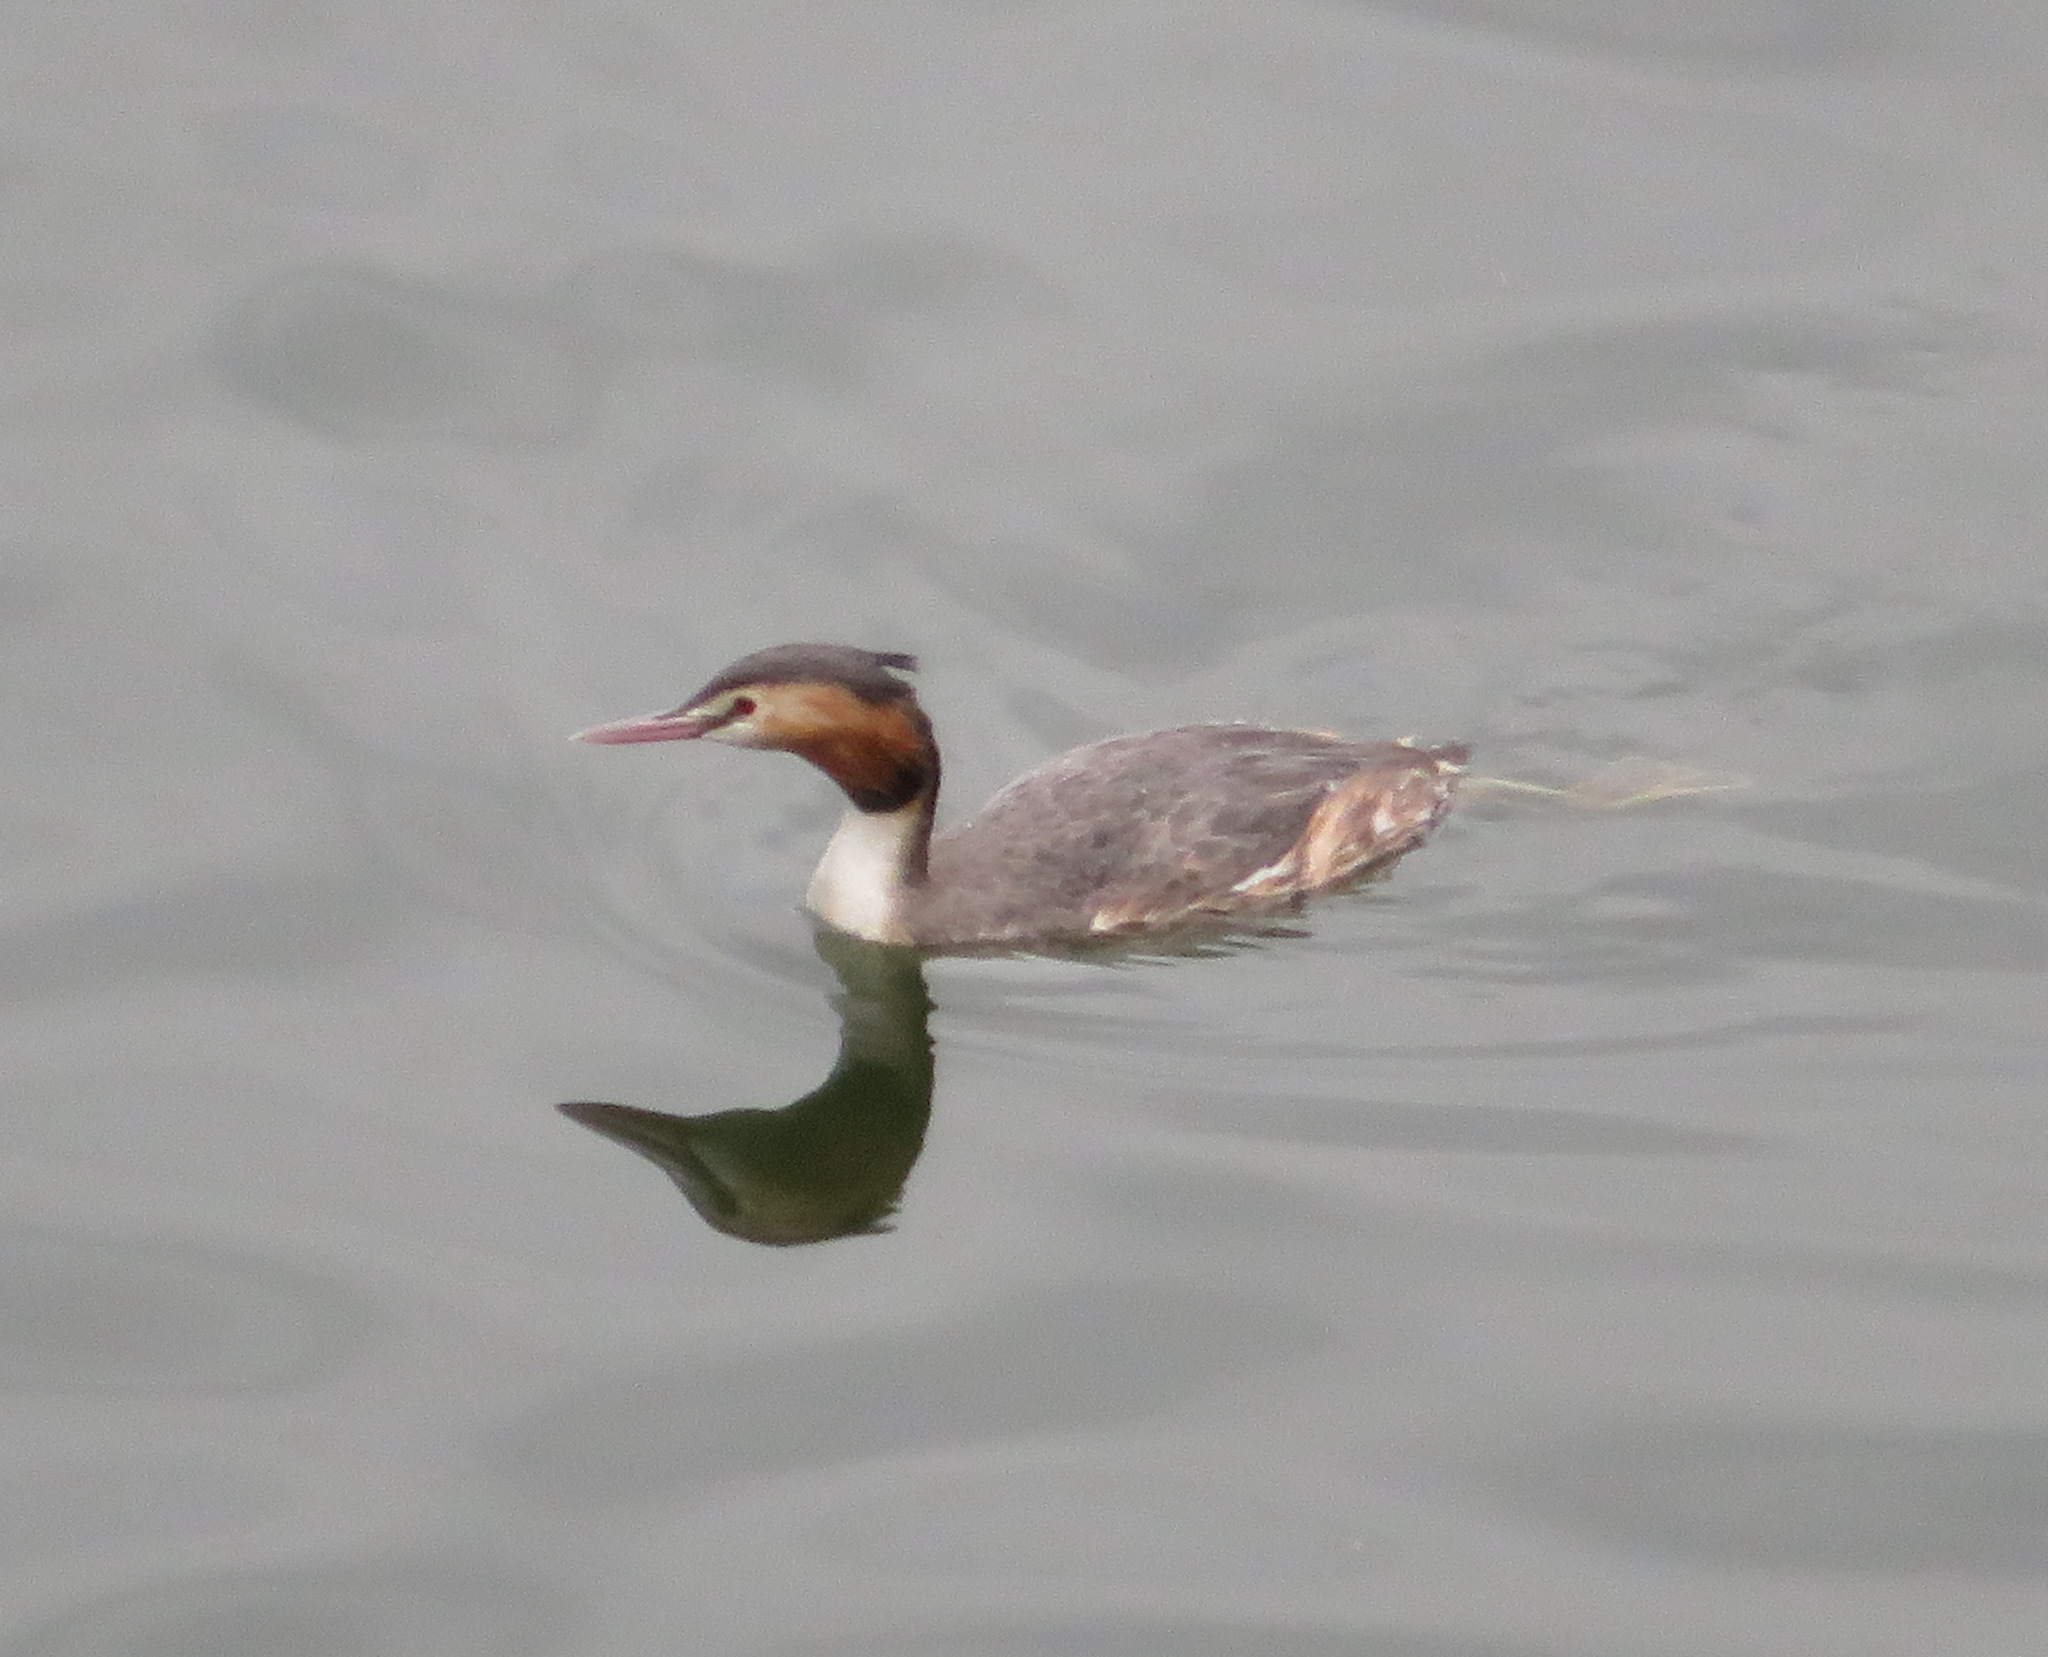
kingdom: Animalia
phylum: Chordata
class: Aves
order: Podicipediformes
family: Podicipedidae
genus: Podiceps
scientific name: Podiceps cristatus
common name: Great crested grebe
